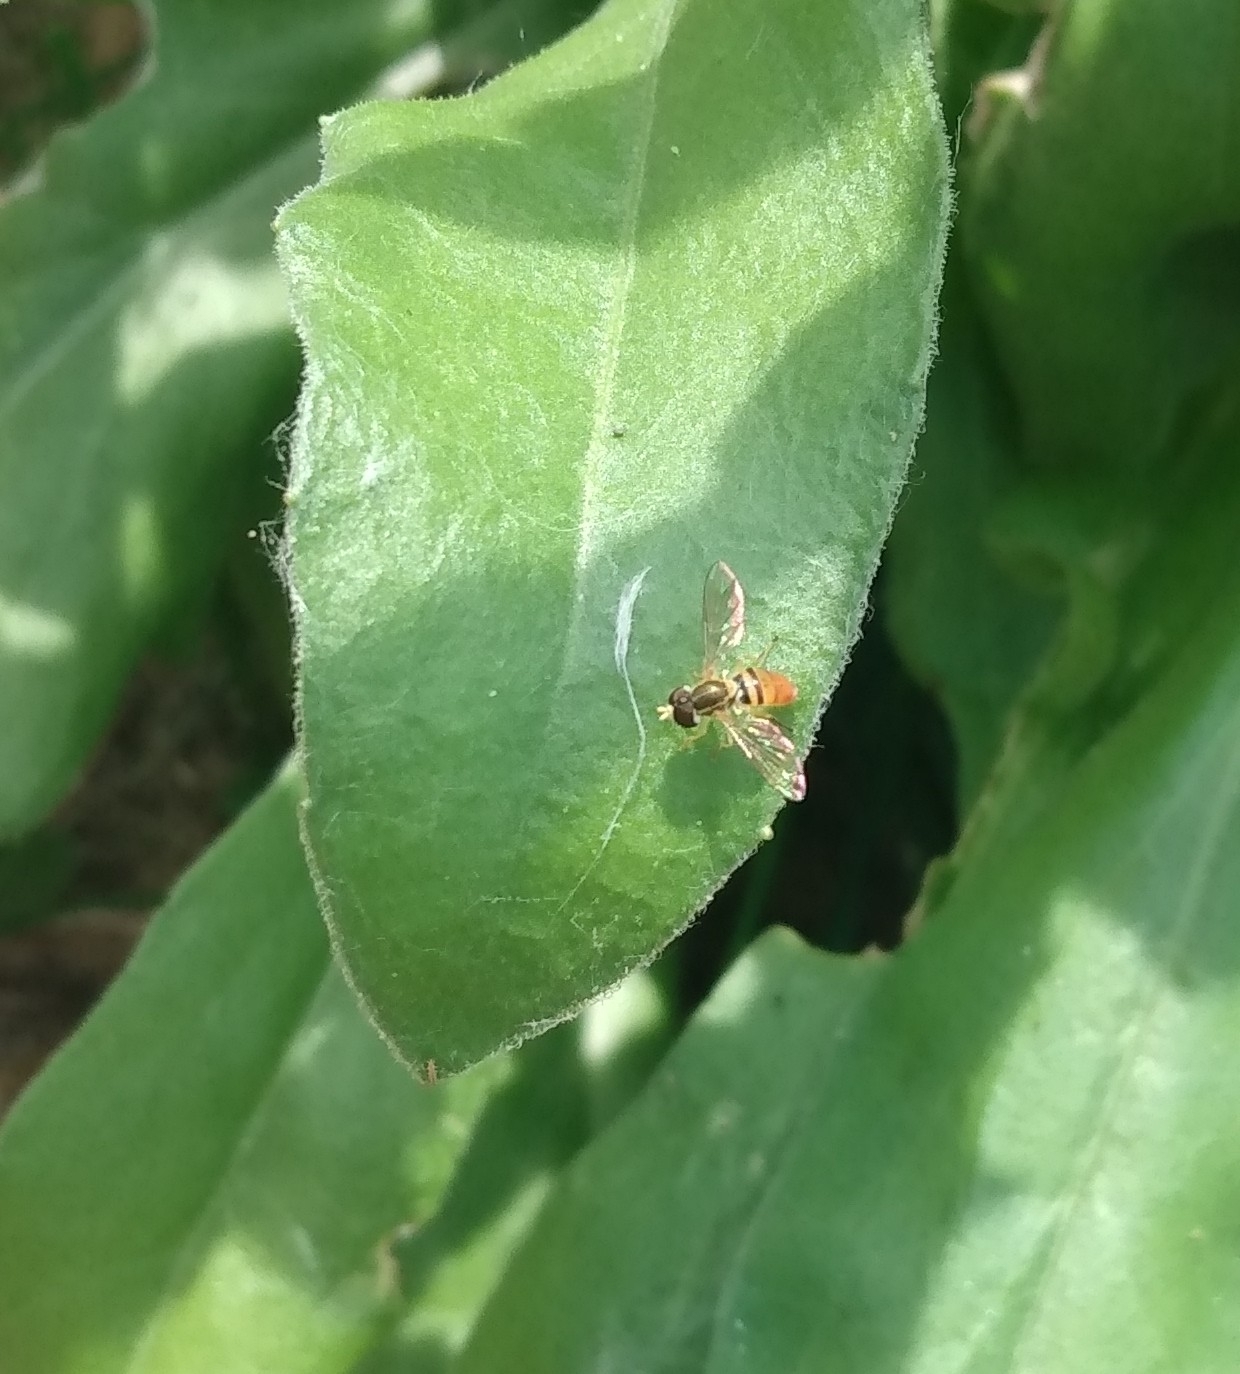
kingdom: Animalia
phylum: Arthropoda
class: Insecta
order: Diptera
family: Syrphidae
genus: Toxomerus
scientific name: Toxomerus marginatus
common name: Syrphid fly
